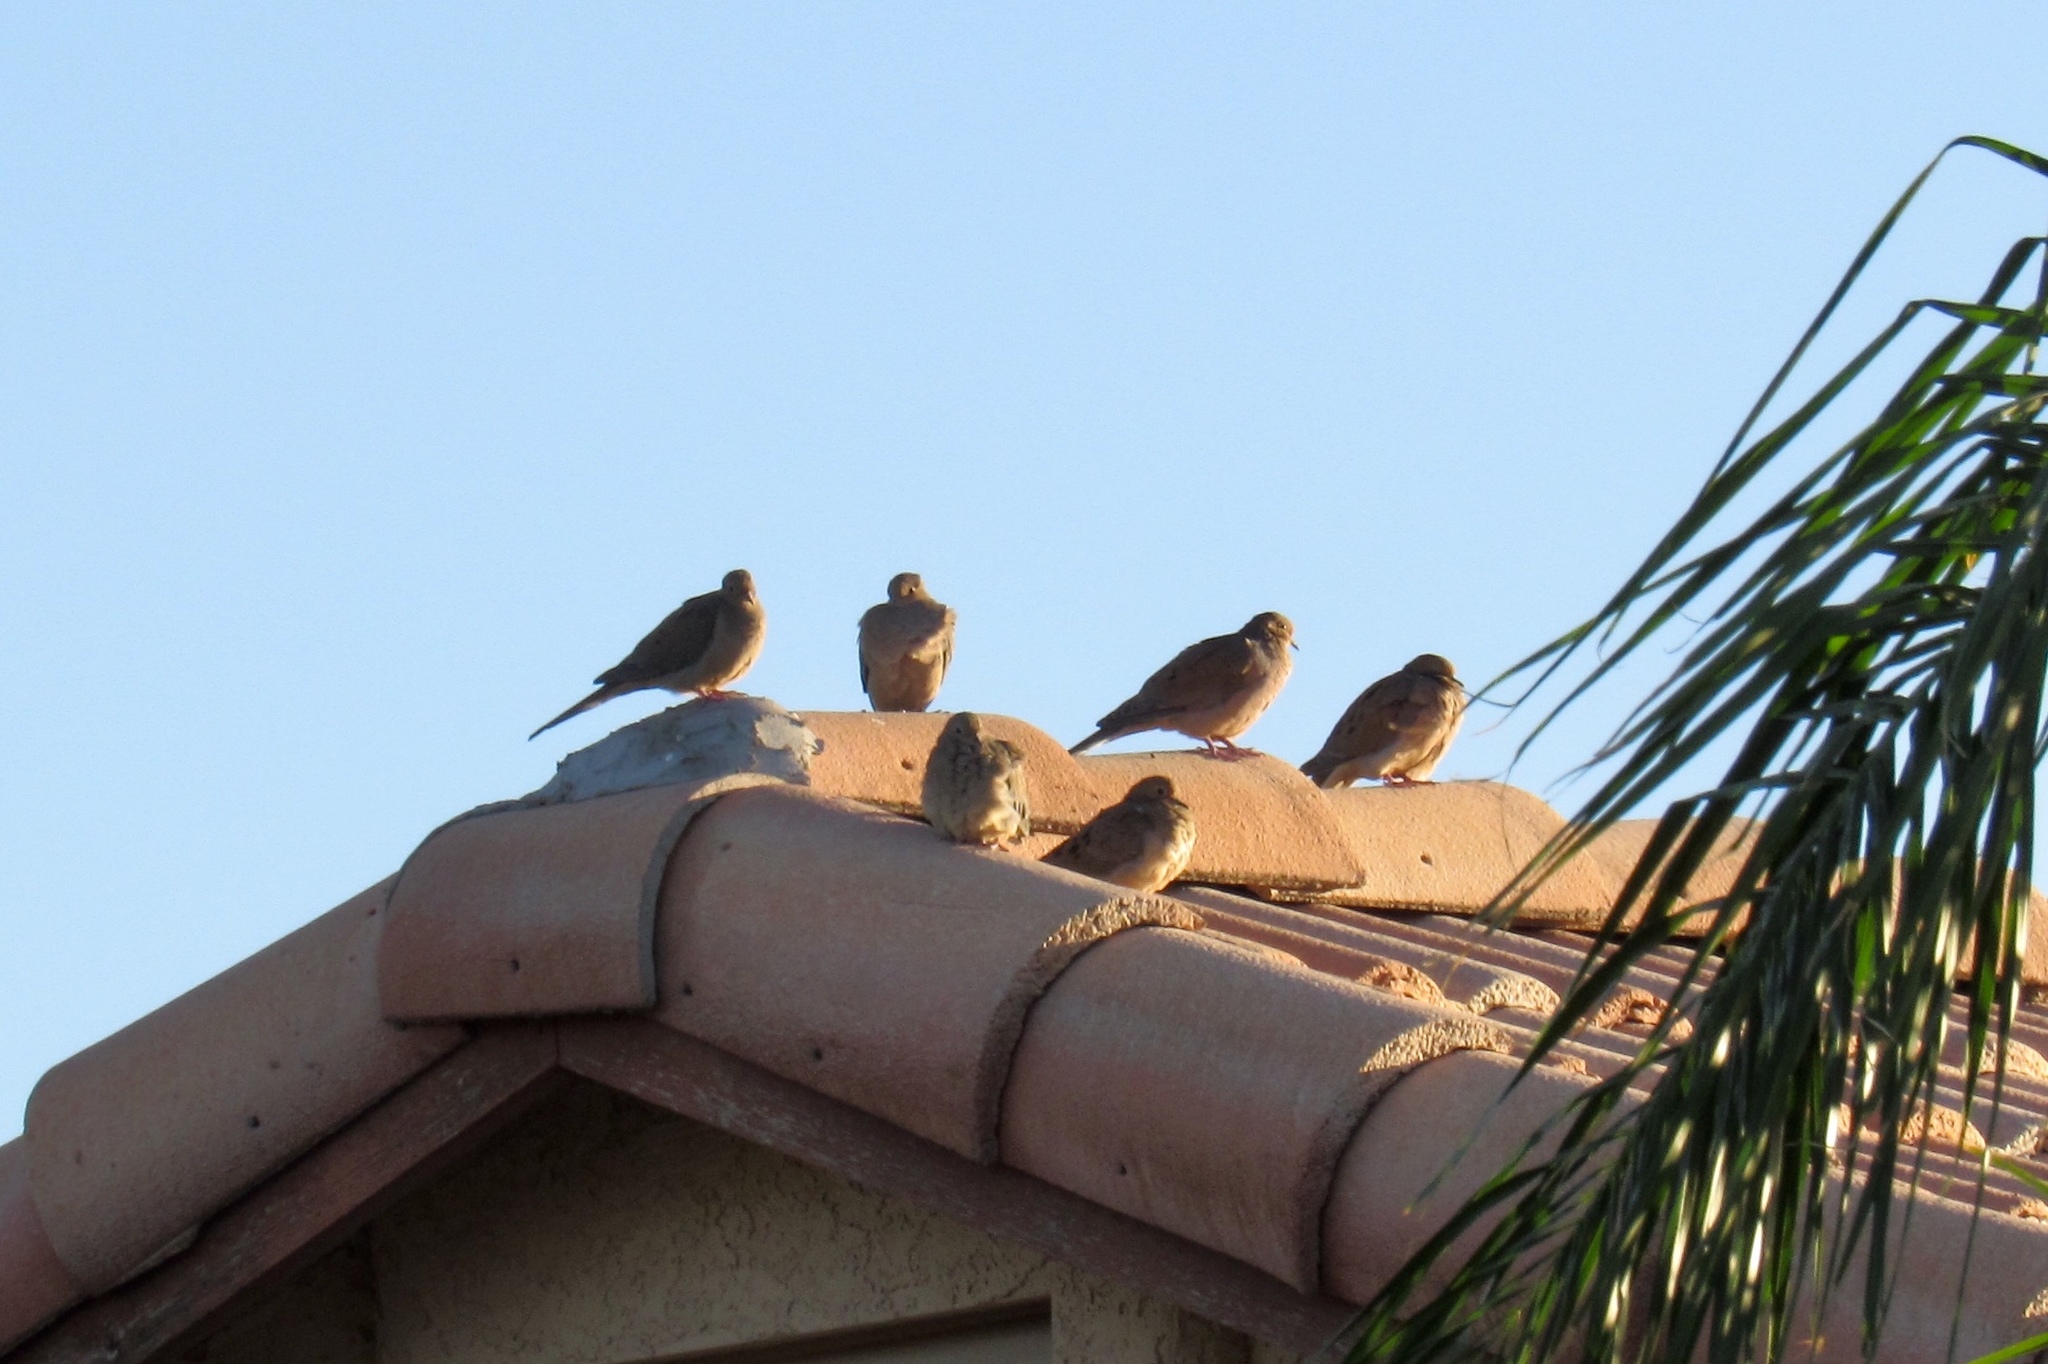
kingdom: Animalia
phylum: Chordata
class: Aves
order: Columbiformes
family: Columbidae
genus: Zenaida
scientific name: Zenaida macroura
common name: Mourning dove
